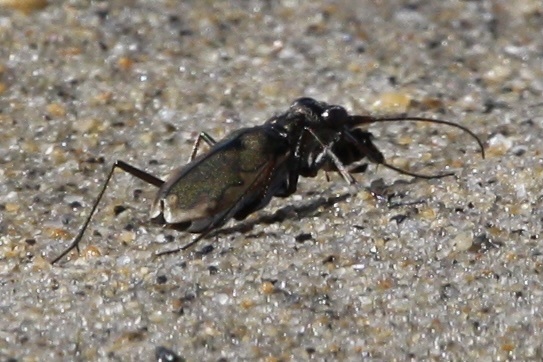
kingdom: Animalia
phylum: Arthropoda
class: Insecta
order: Coleoptera
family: Carabidae
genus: Ellipsoptera
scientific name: Ellipsoptera marginata
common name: Margined tiger beetle
